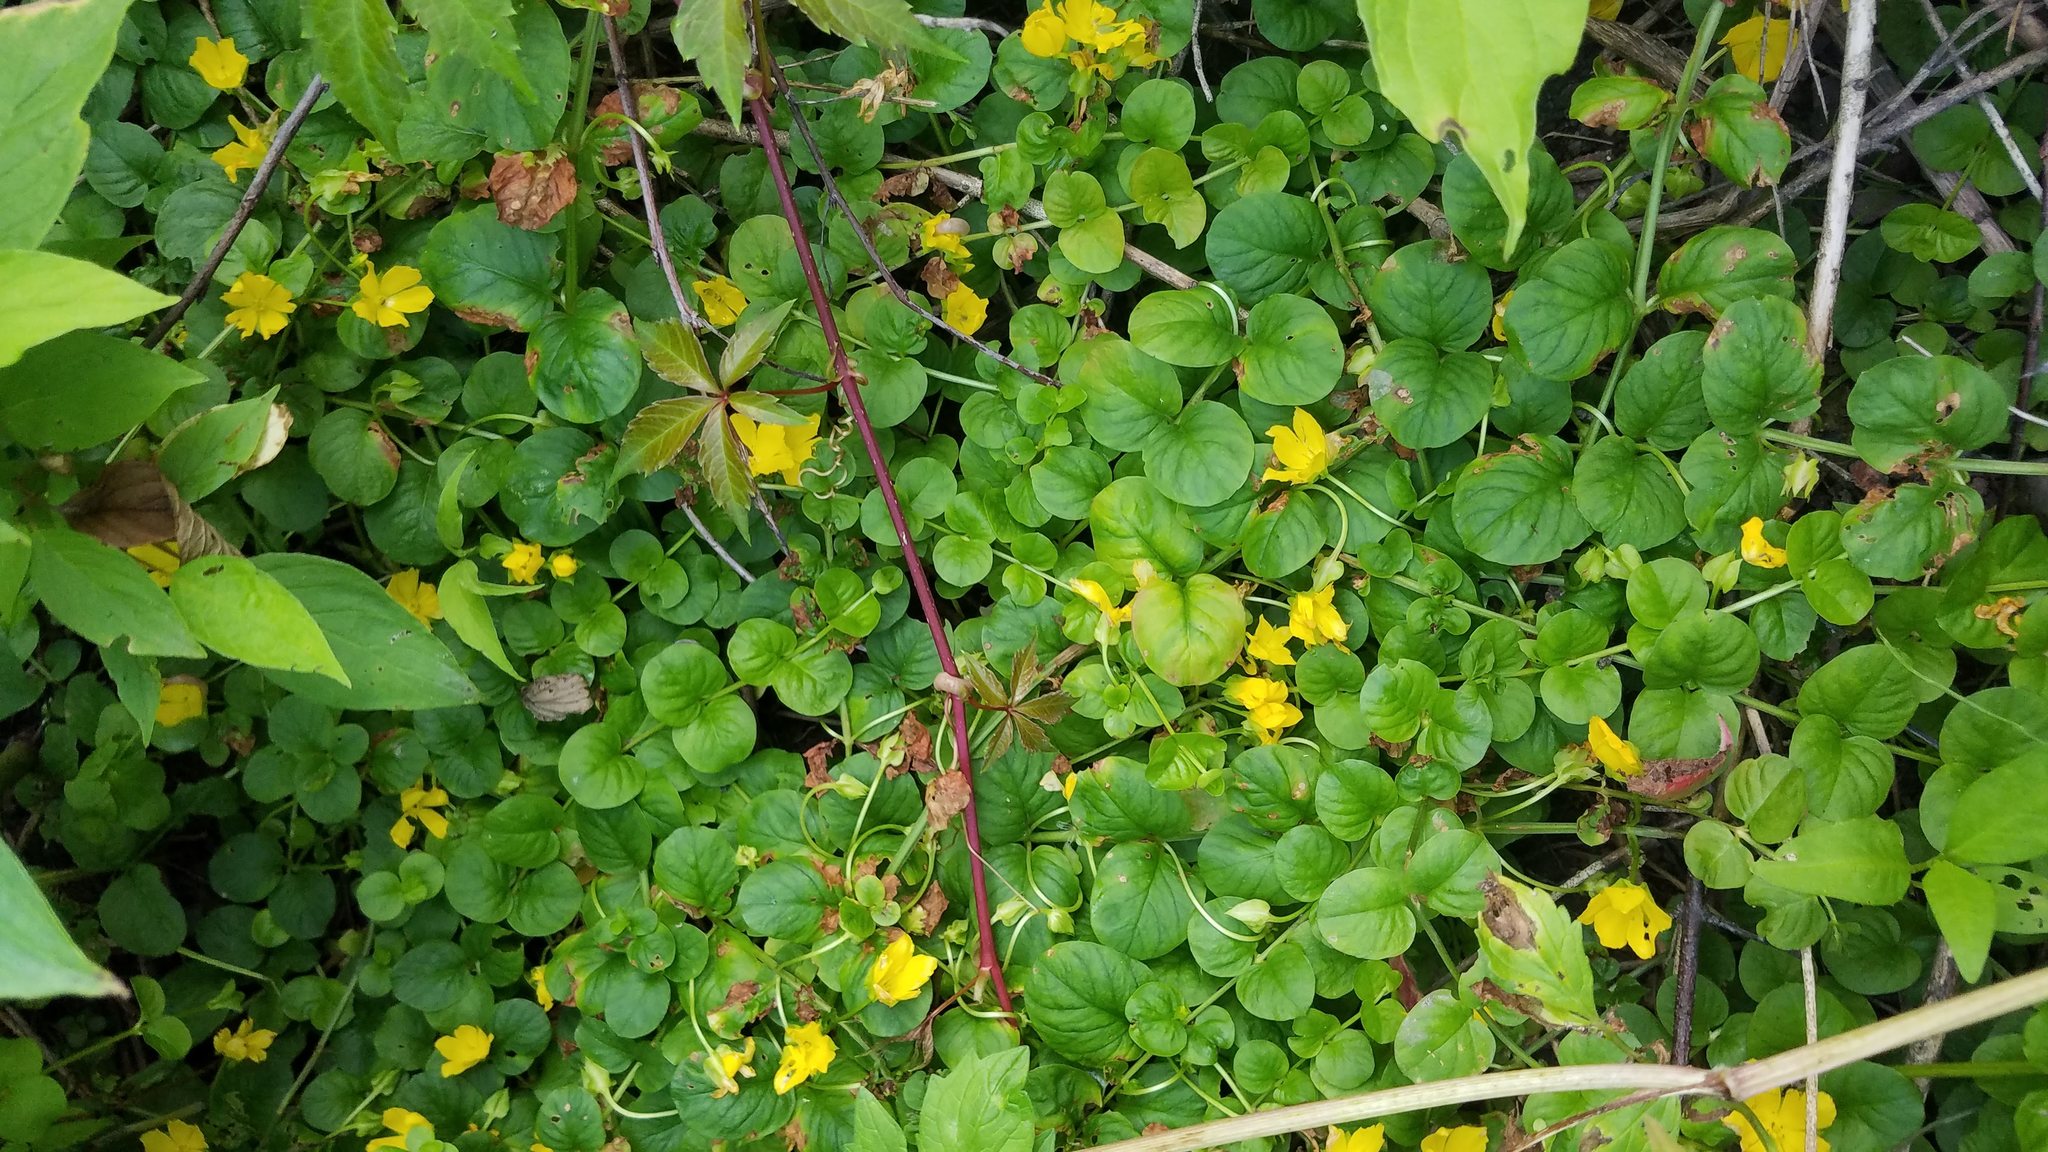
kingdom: Plantae
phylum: Tracheophyta
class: Magnoliopsida
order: Ericales
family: Primulaceae
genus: Lysimachia
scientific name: Lysimachia nummularia
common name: Moneywort
